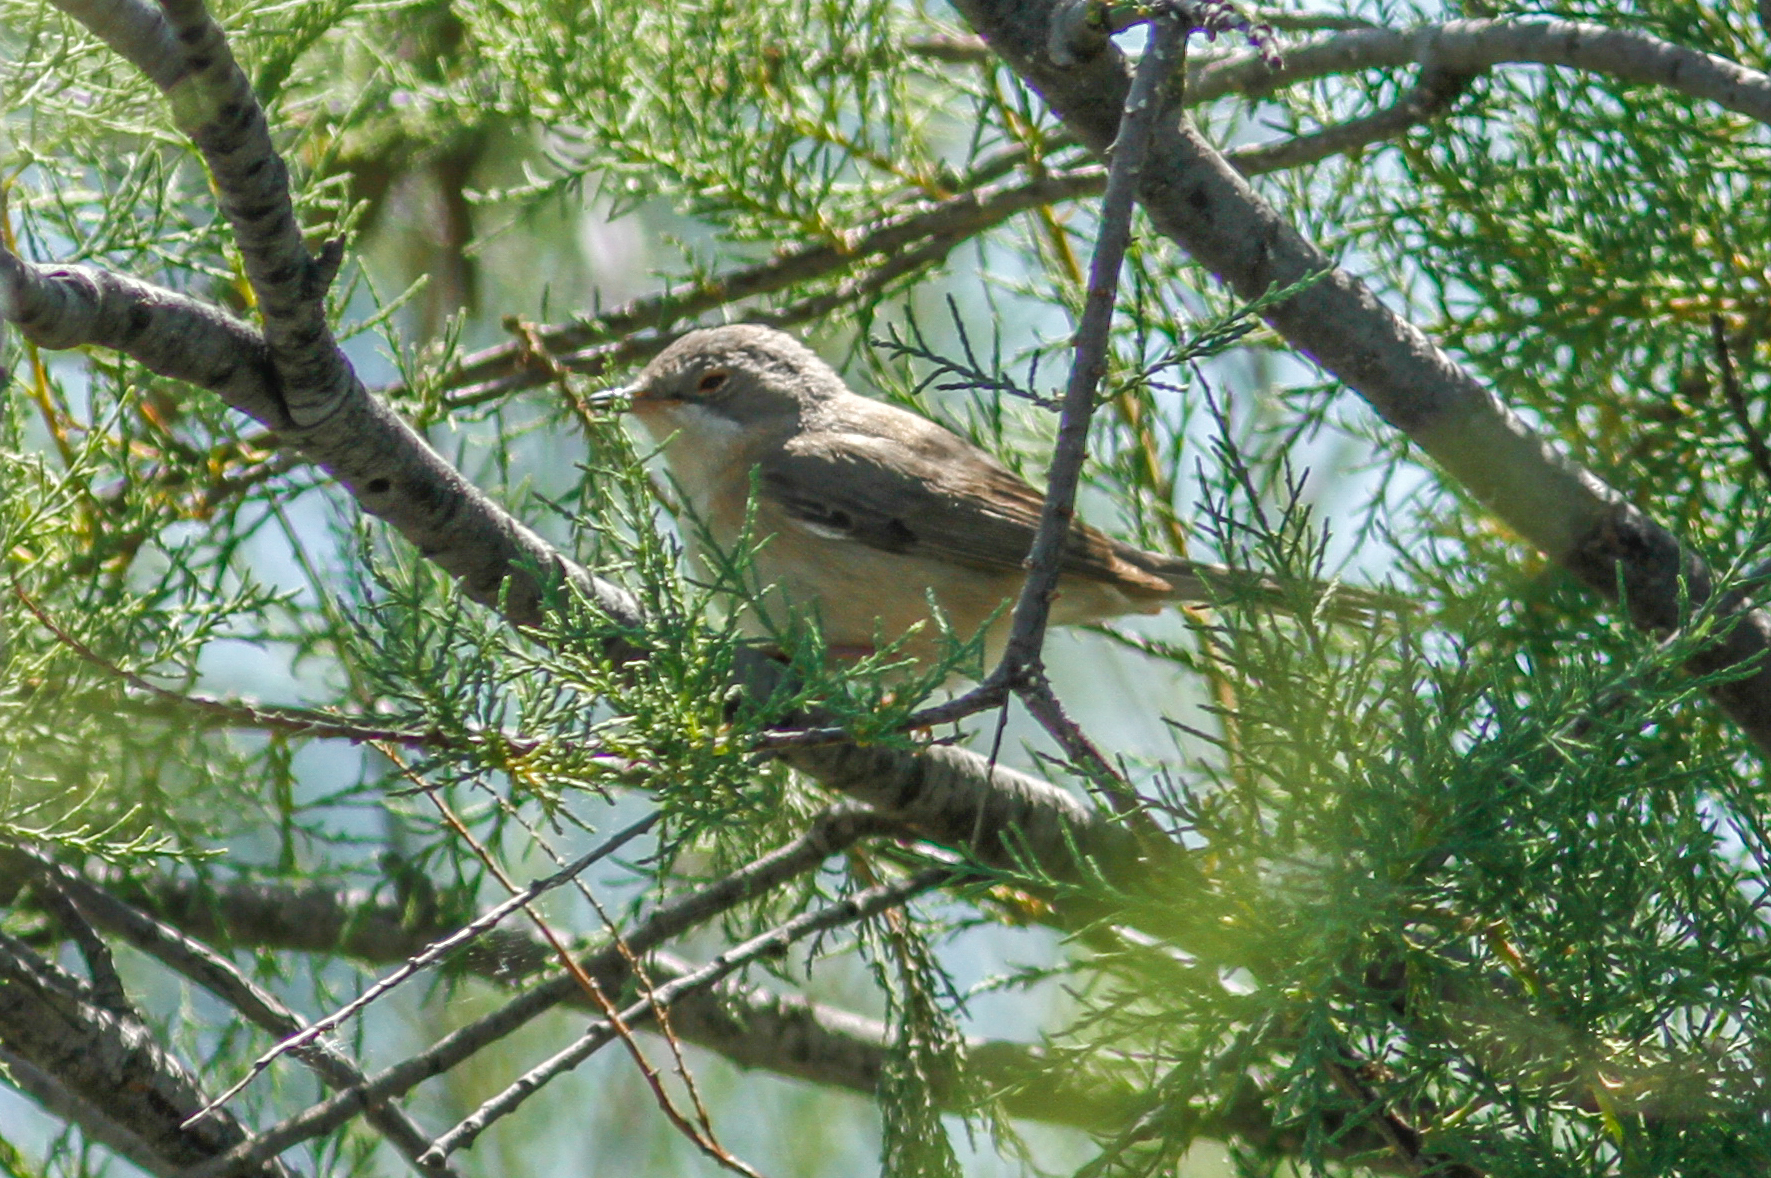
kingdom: Animalia
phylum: Chordata
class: Aves
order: Passeriformes
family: Sylviidae
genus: Curruca
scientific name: Curruca iberiae
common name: Western subalpine warbler
